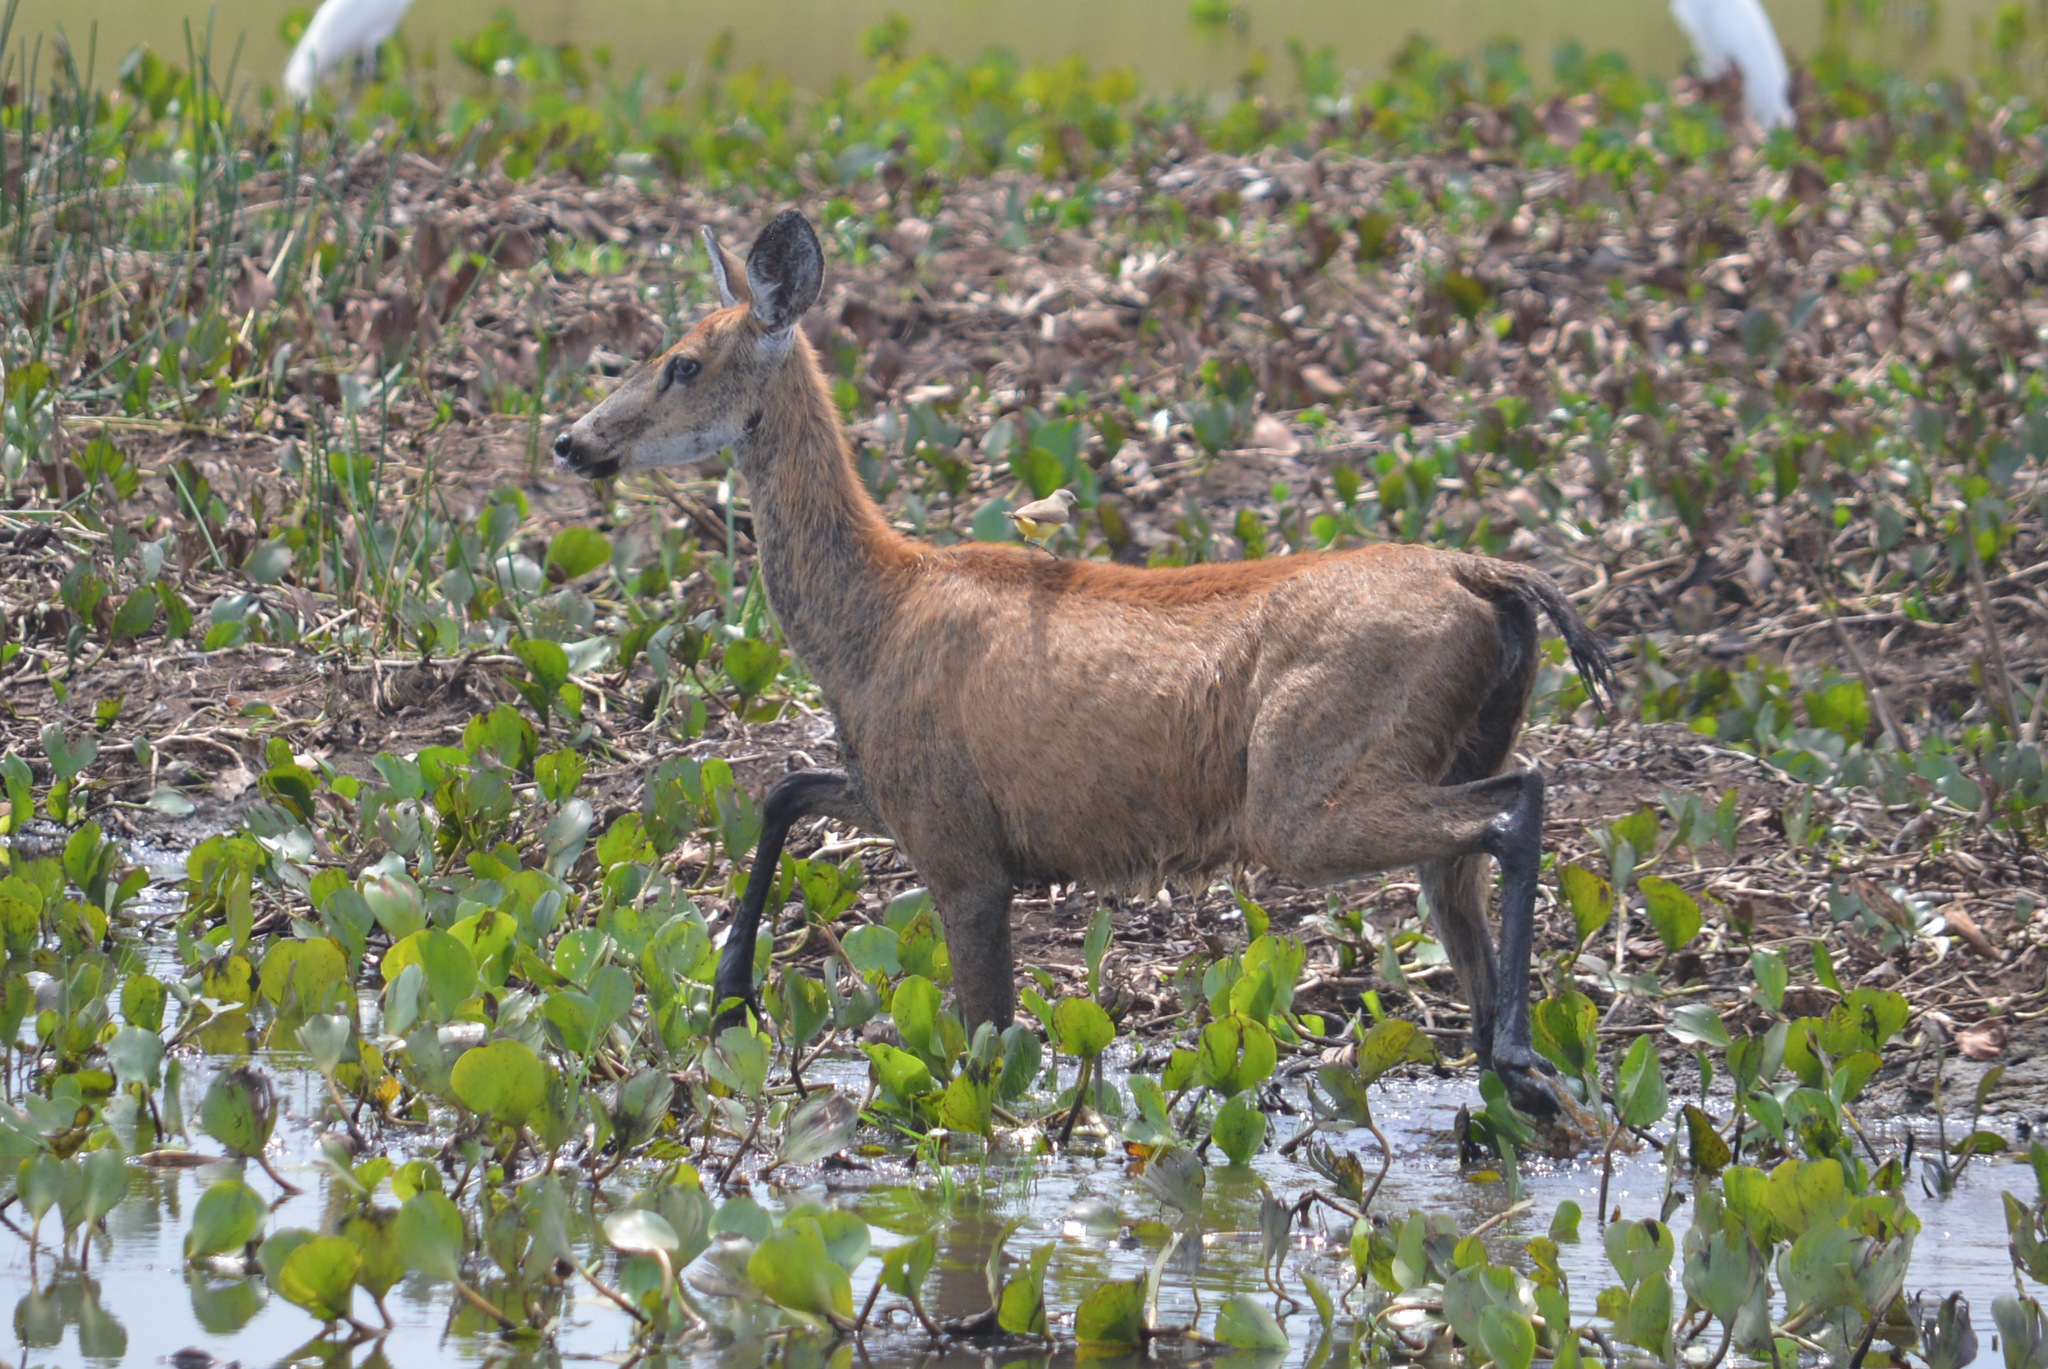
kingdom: Animalia
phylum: Chordata
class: Mammalia
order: Artiodactyla
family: Cervidae
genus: Blastocerus
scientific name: Blastocerus dichotomus
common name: Marsh deer
